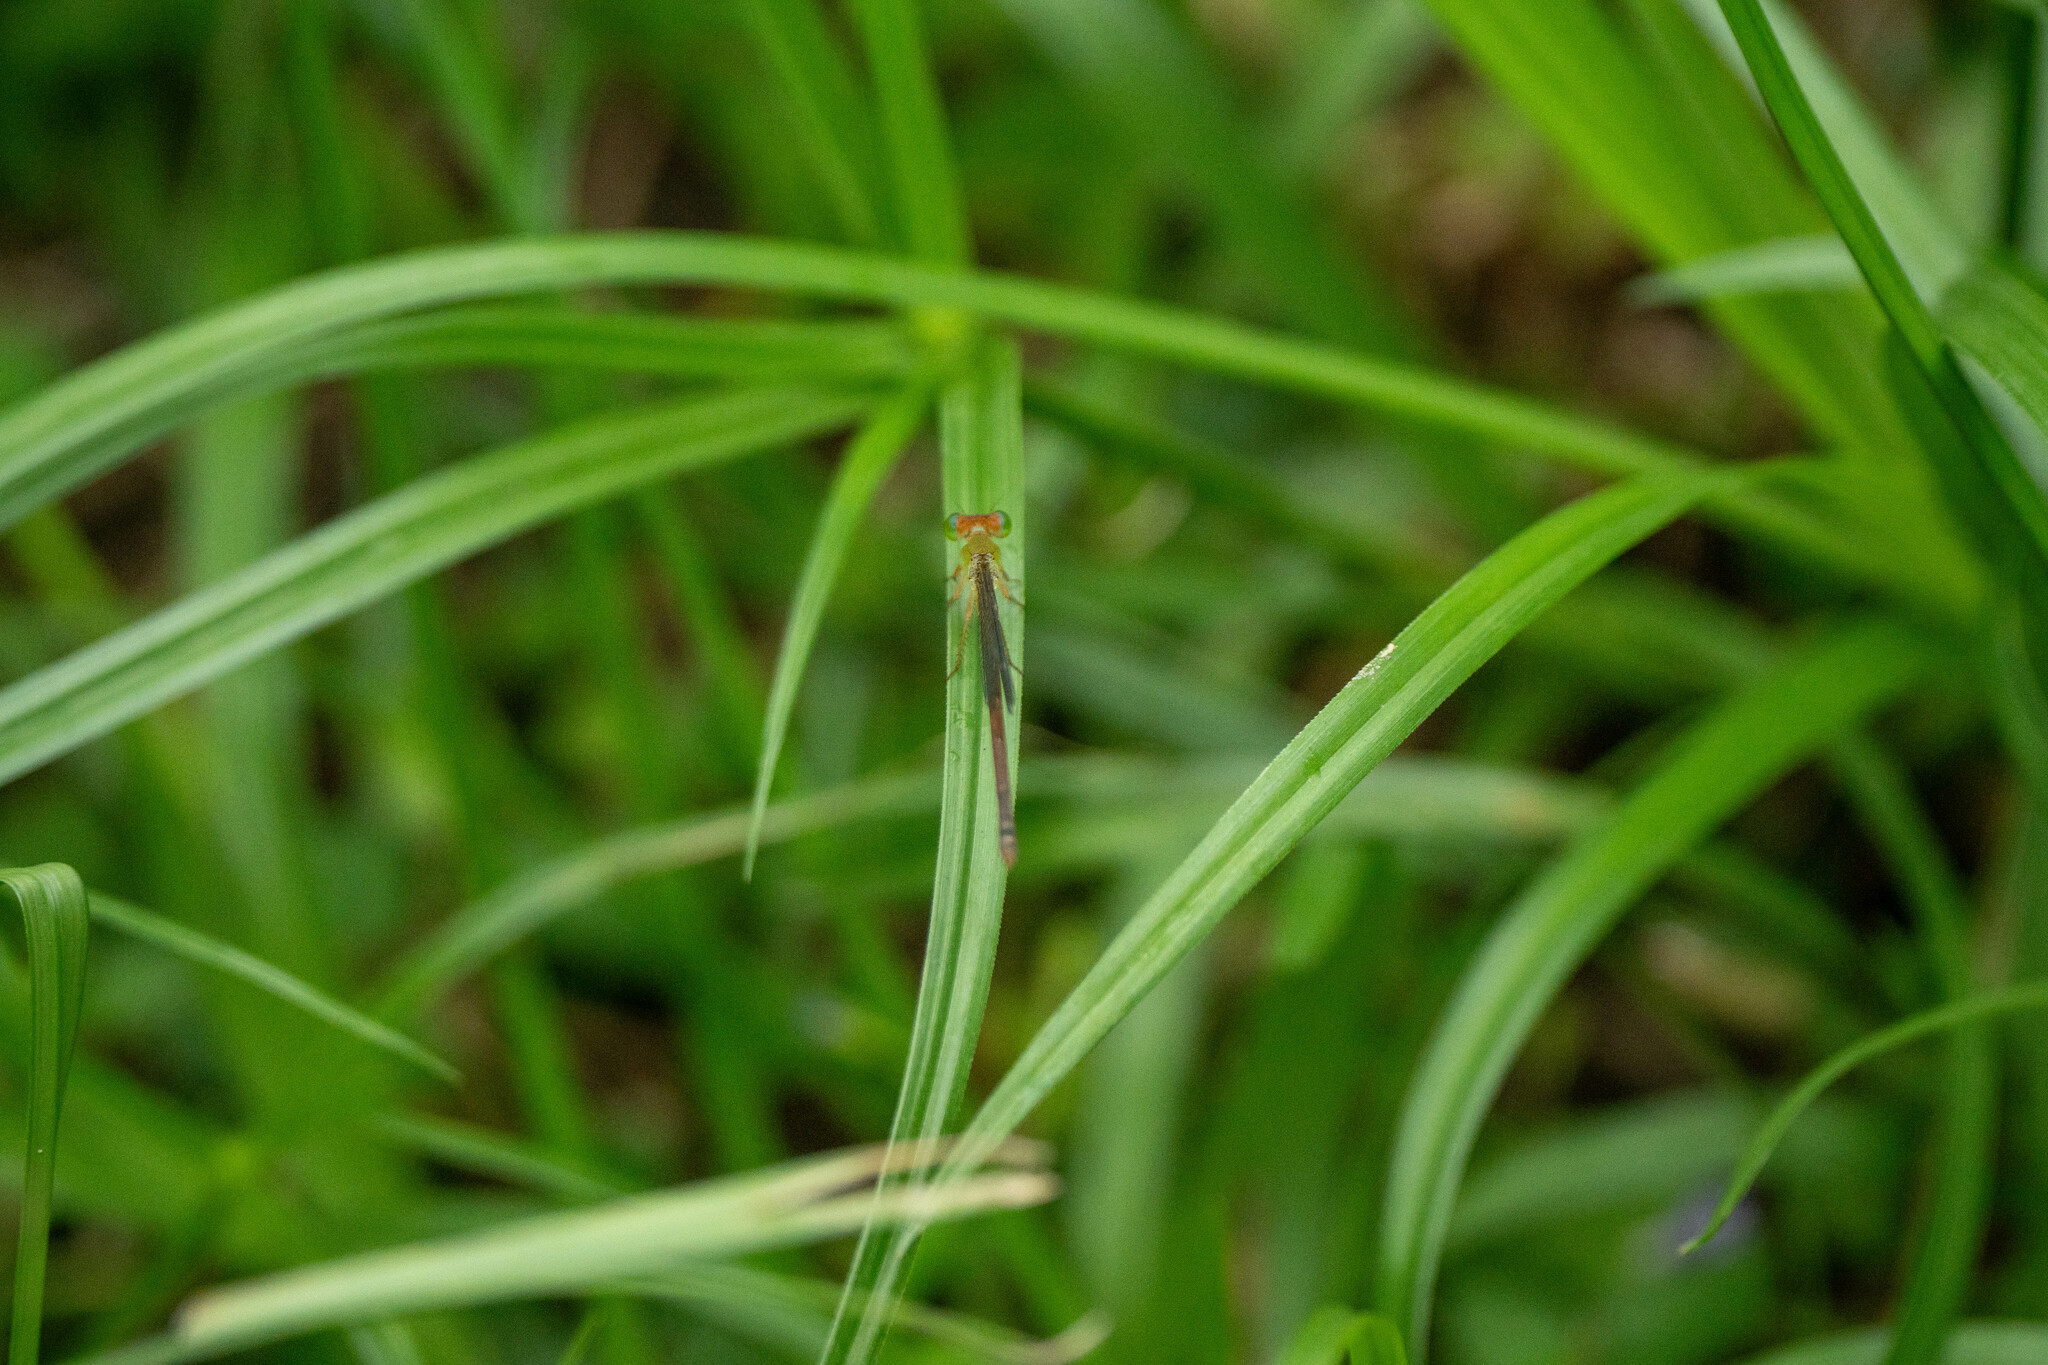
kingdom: Animalia
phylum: Arthropoda
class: Insecta
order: Odonata
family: Coenagrionidae
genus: Ceriagrion
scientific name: Ceriagrion auranticum
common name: Orange-tailed sprite
